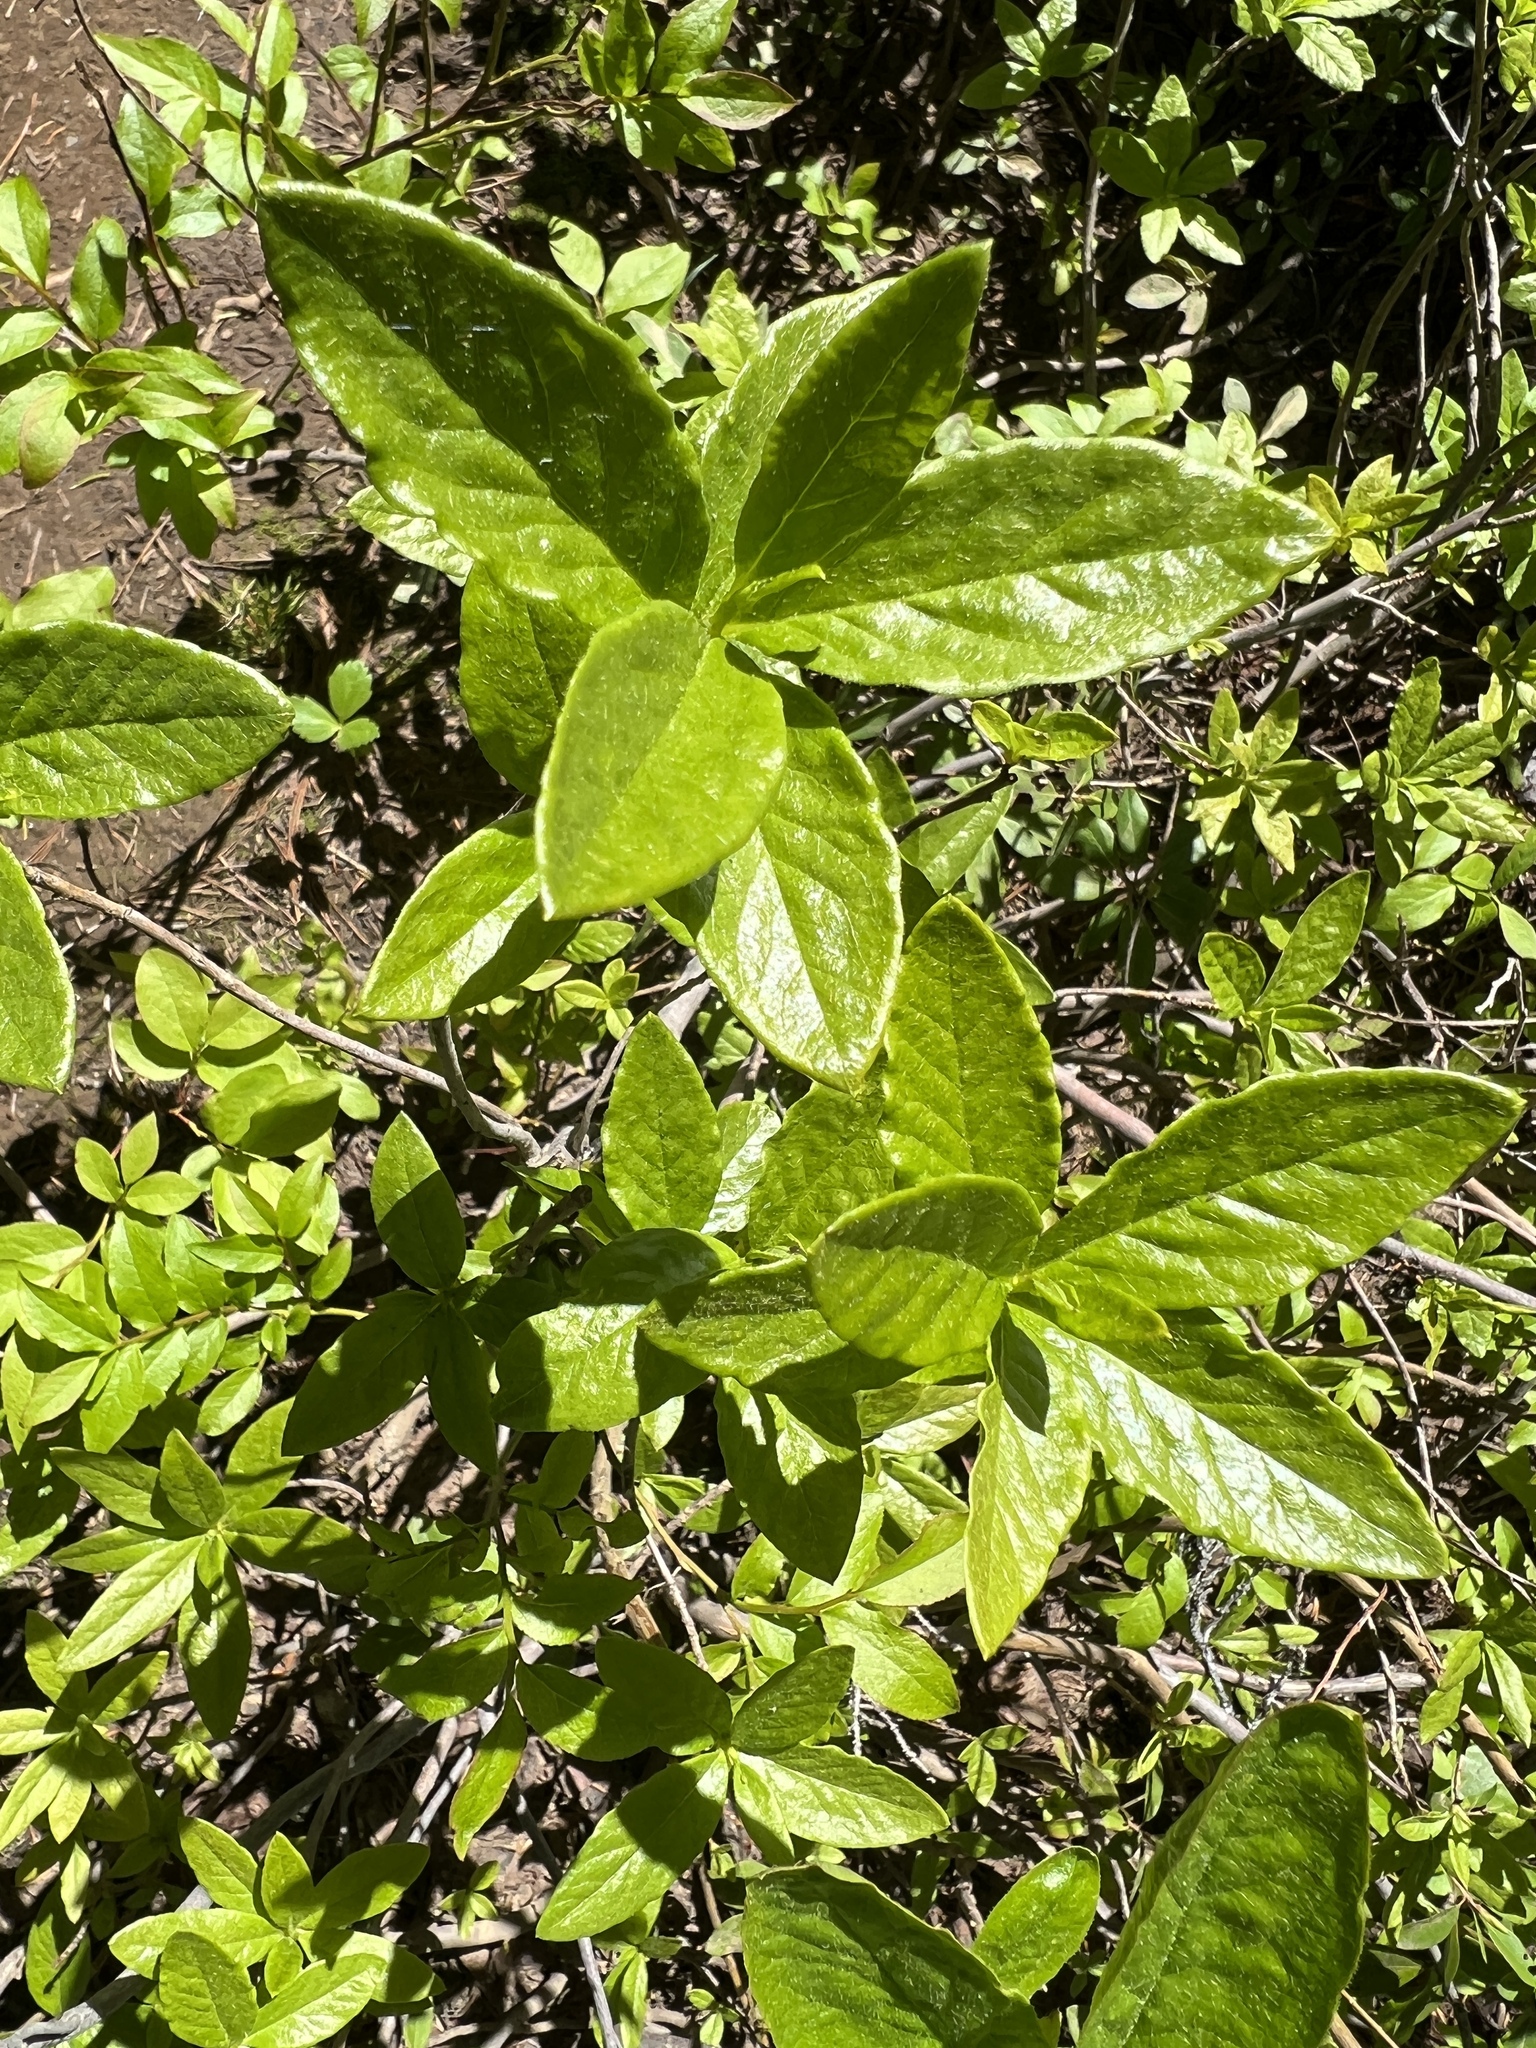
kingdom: Plantae
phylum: Tracheophyta
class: Magnoliopsida
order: Ericales
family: Ericaceae
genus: Rhododendron
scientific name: Rhododendron albiflorum
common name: White rhododendron
